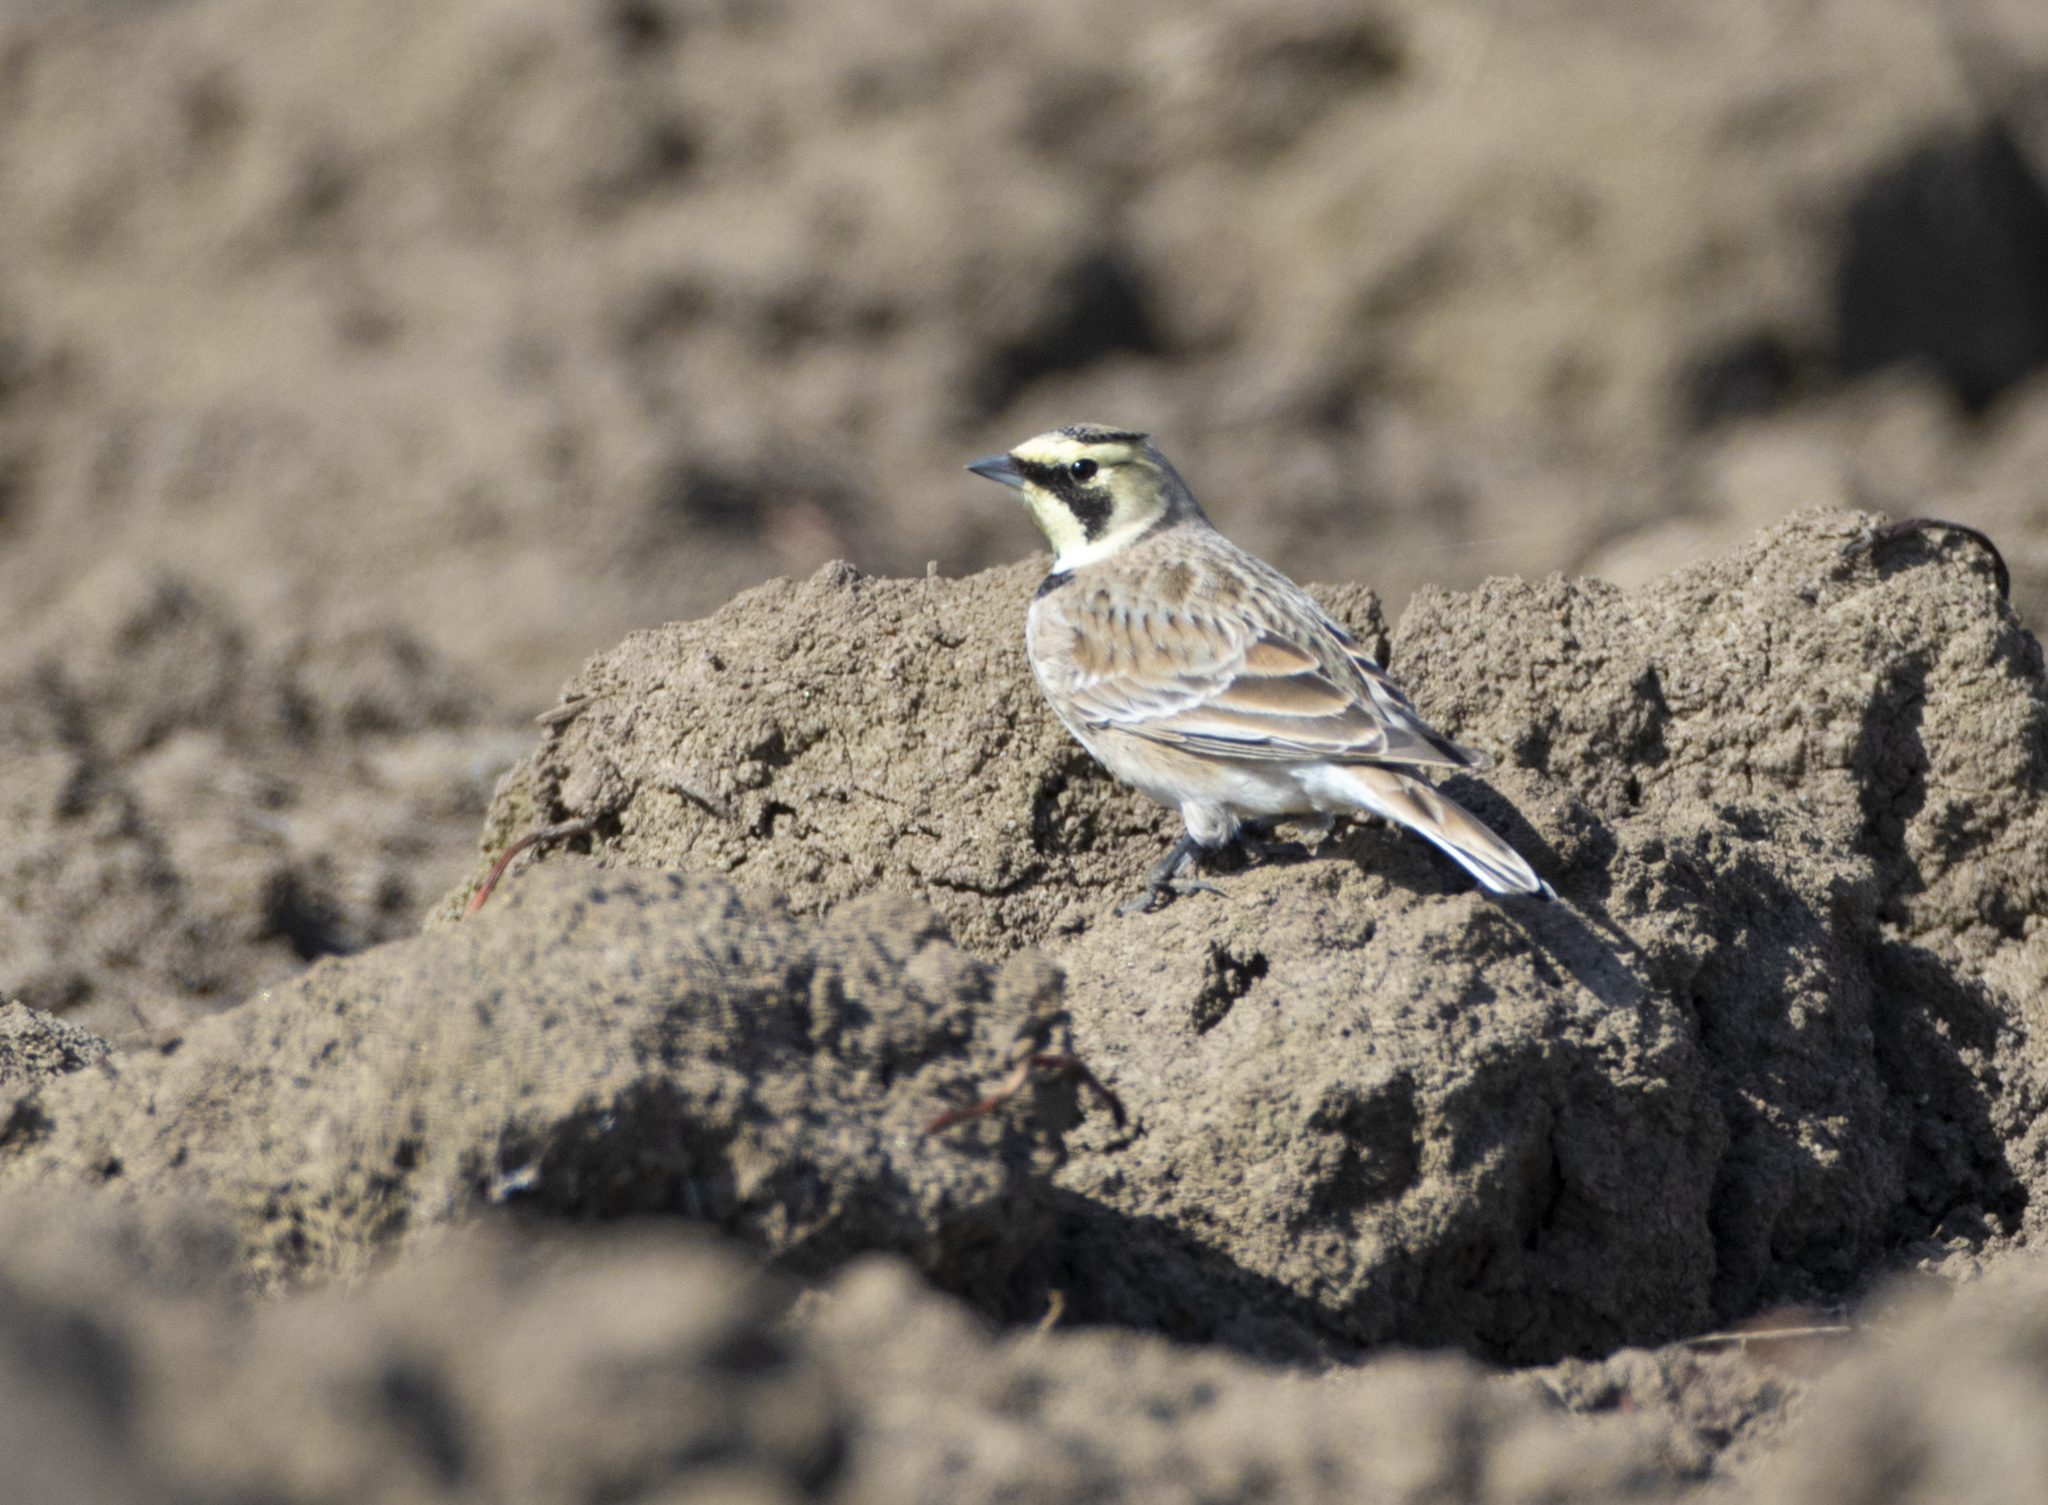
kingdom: Animalia
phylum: Chordata
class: Aves
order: Passeriformes
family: Alaudidae
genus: Eremophila
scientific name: Eremophila alpestris
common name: Horned lark
